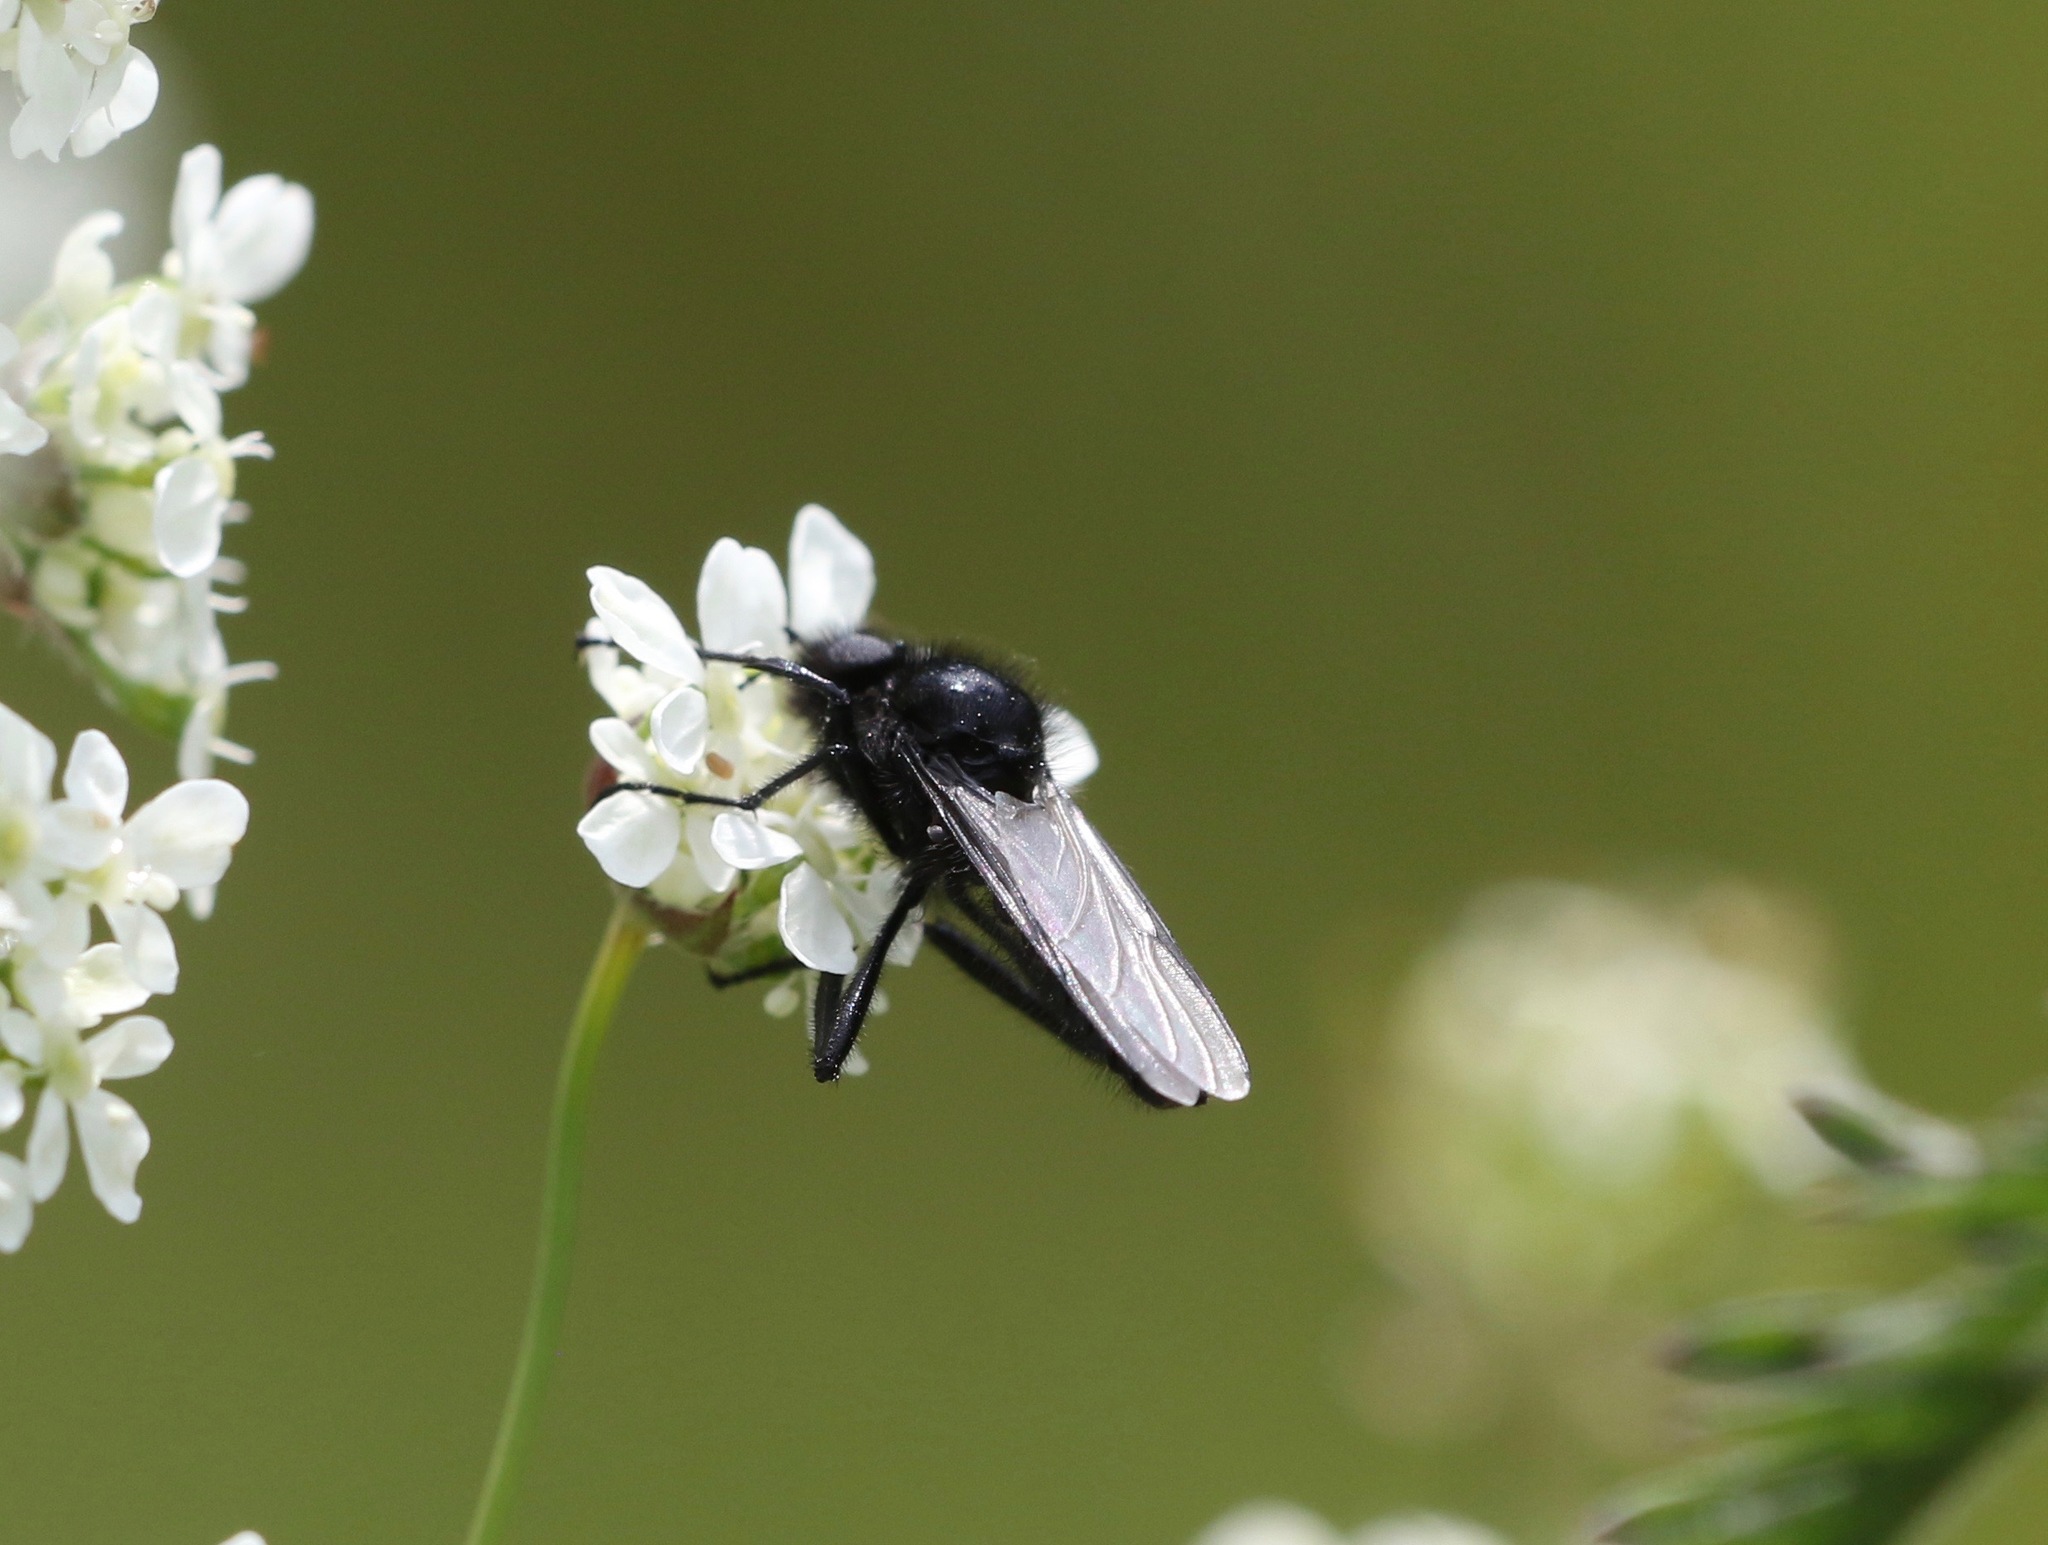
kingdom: Animalia
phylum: Arthropoda
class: Insecta
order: Diptera
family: Bibionidae
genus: Bibio
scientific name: Bibio marci
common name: St marks fly
